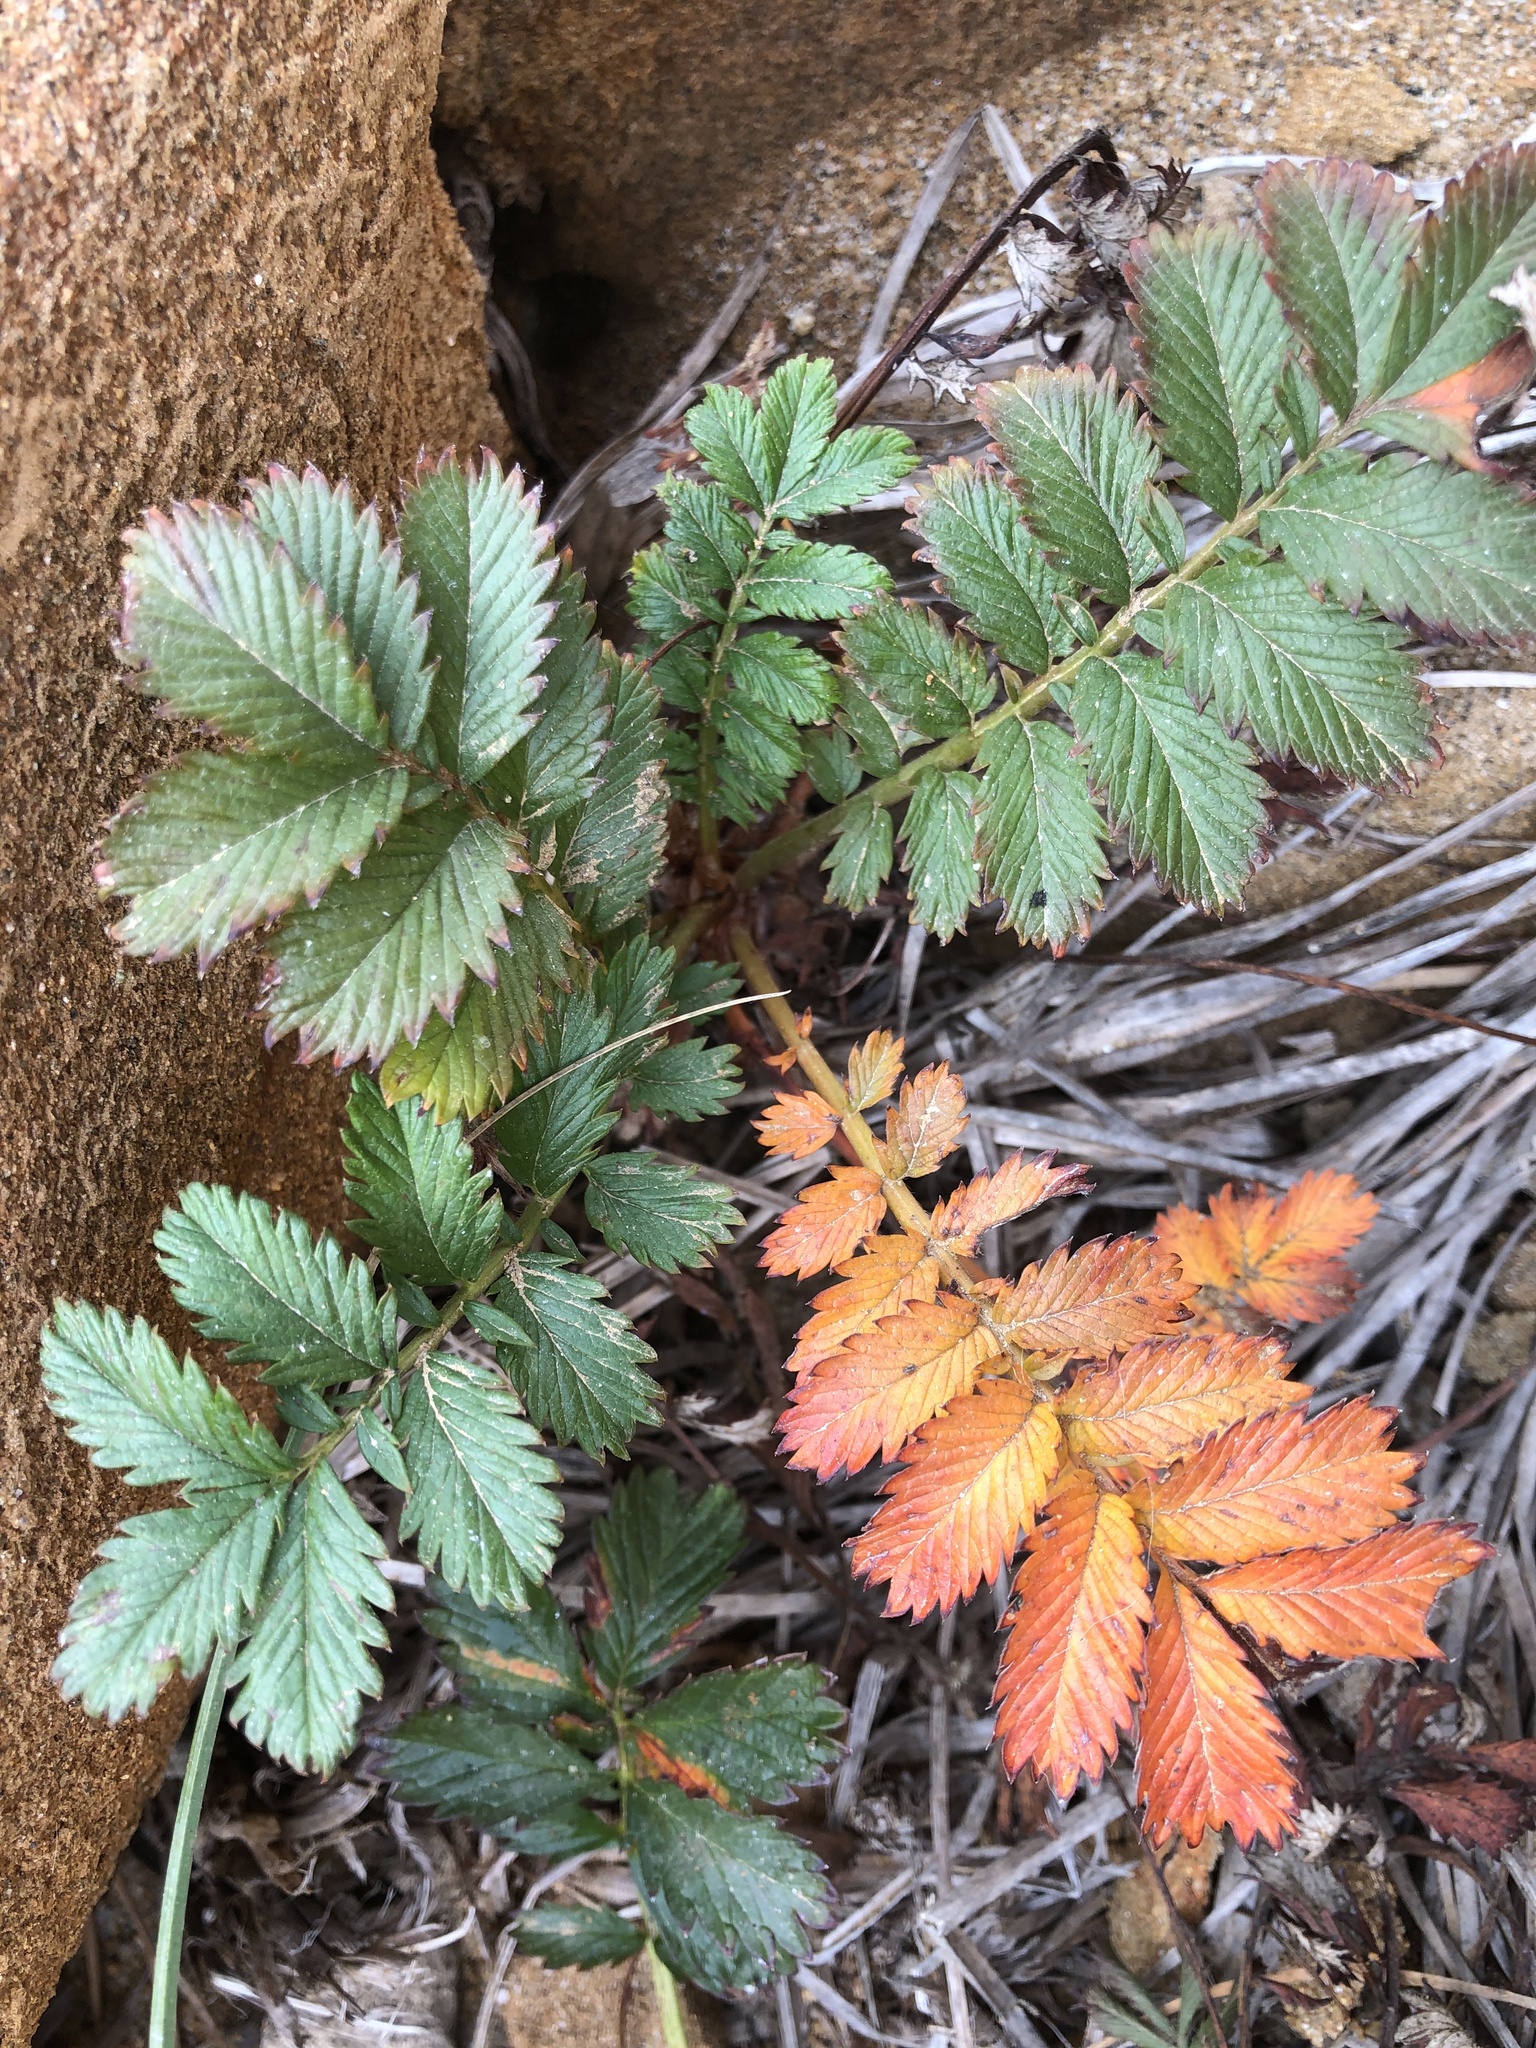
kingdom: Plantae
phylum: Tracheophyta
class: Magnoliopsida
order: Rosales
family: Rosaceae
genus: Argentina
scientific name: Argentina anserina
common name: Common silverweed
